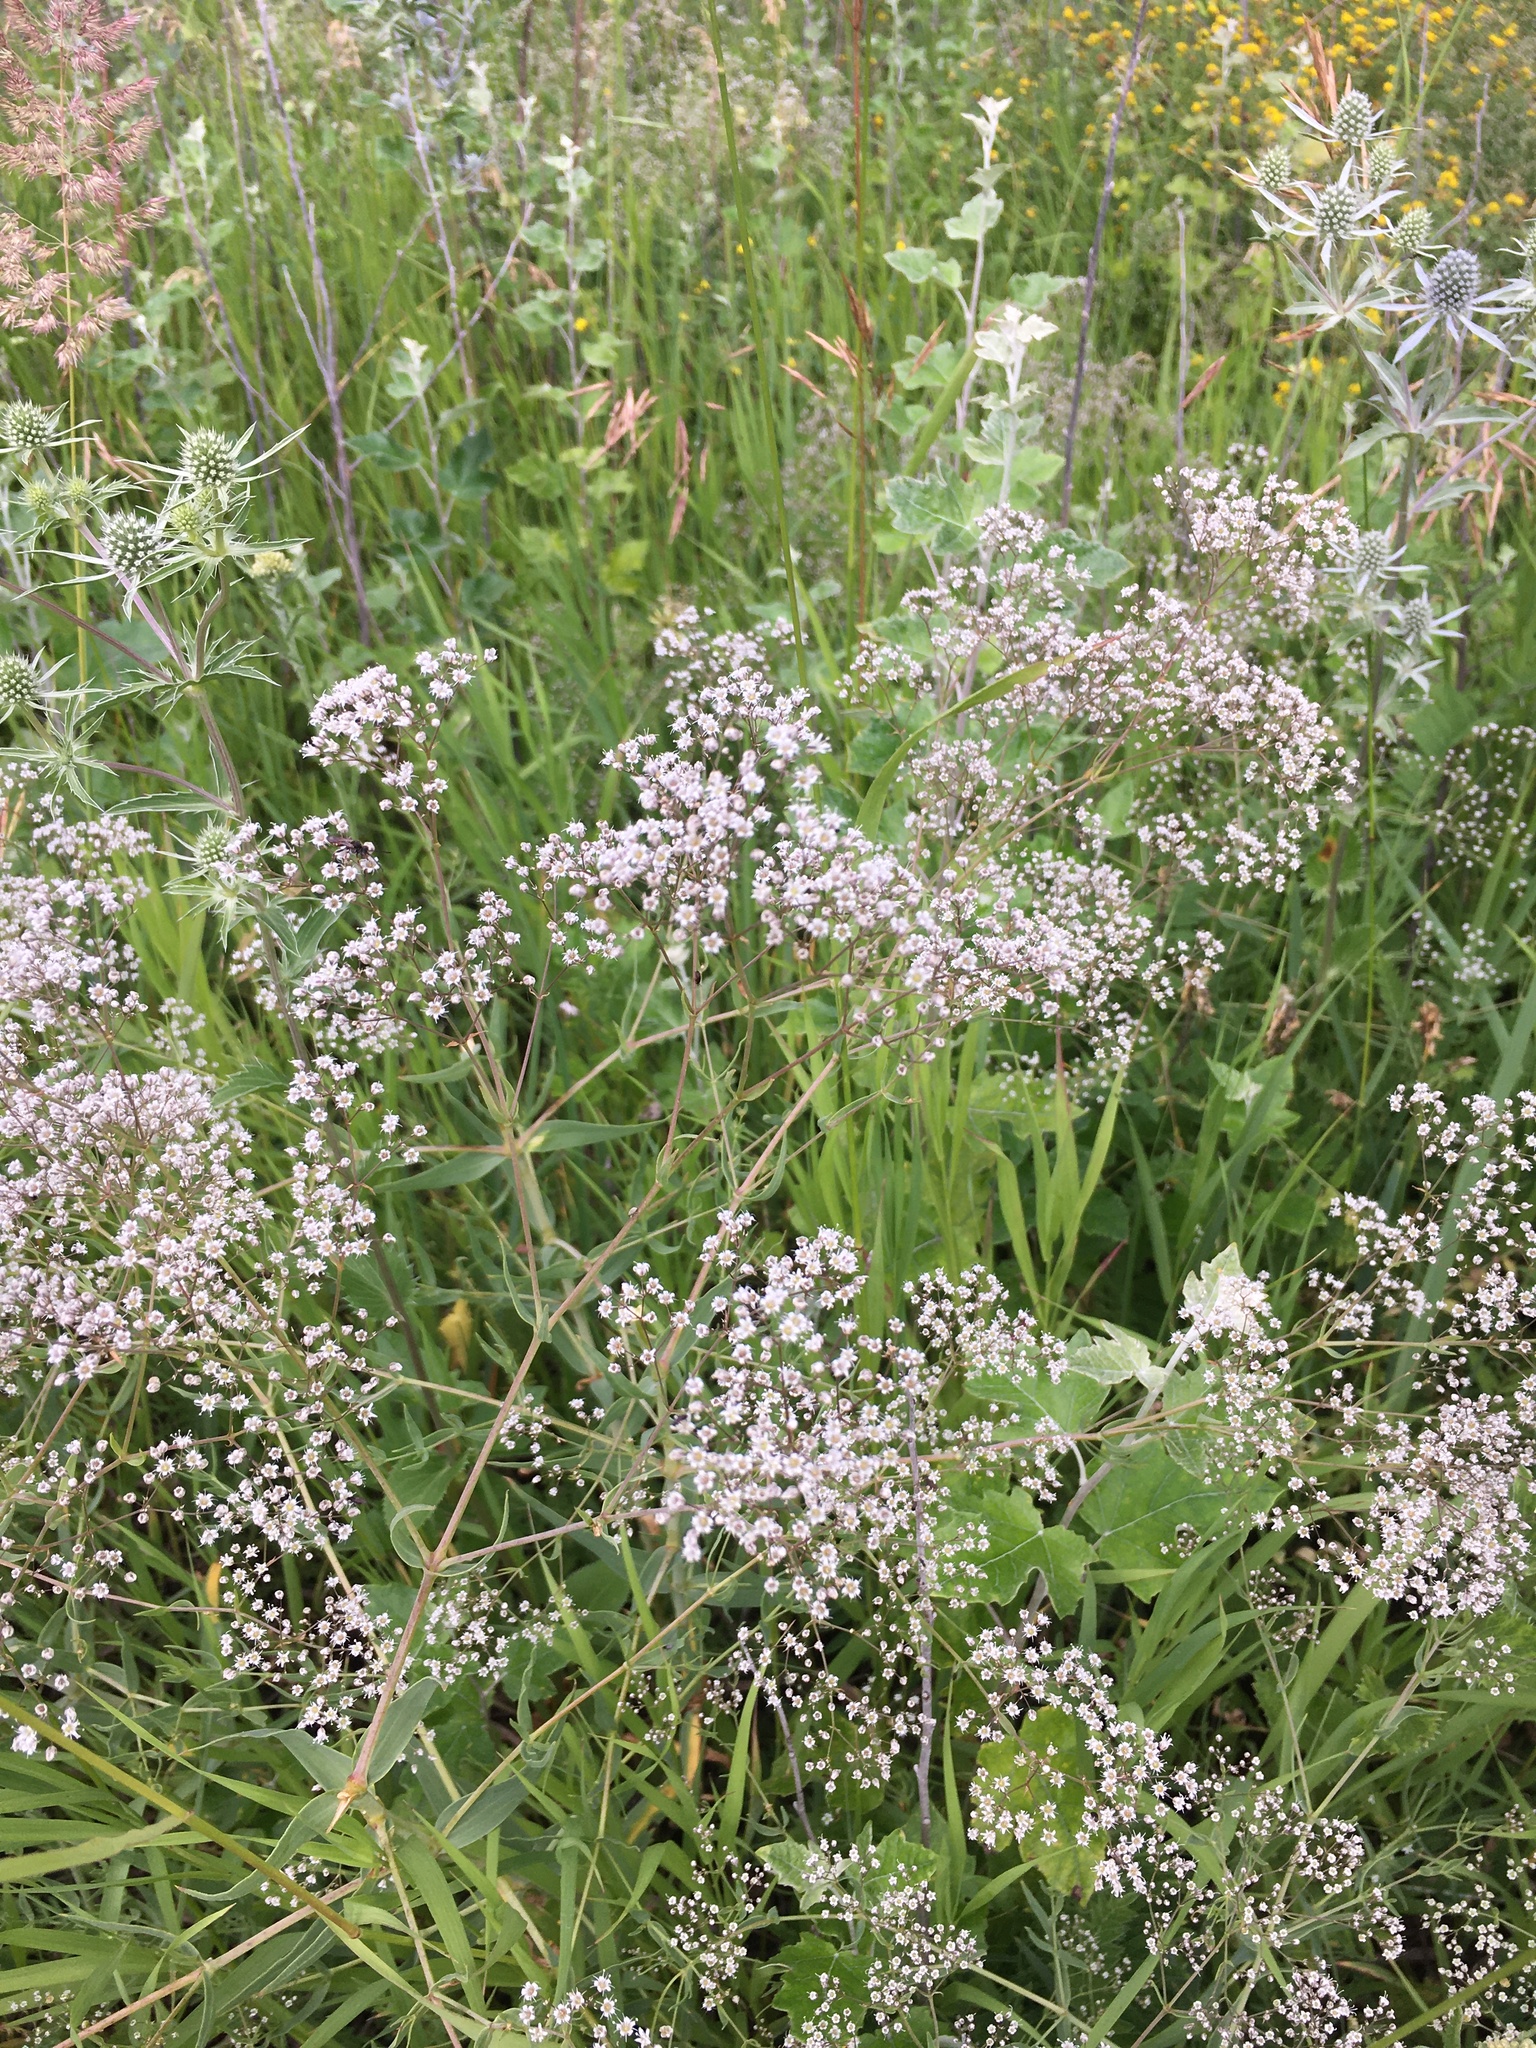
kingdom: Plantae
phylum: Tracheophyta
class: Magnoliopsida
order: Caryophyllales
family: Caryophyllaceae
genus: Gypsophila
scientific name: Gypsophila paniculata
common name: Baby's-breath
